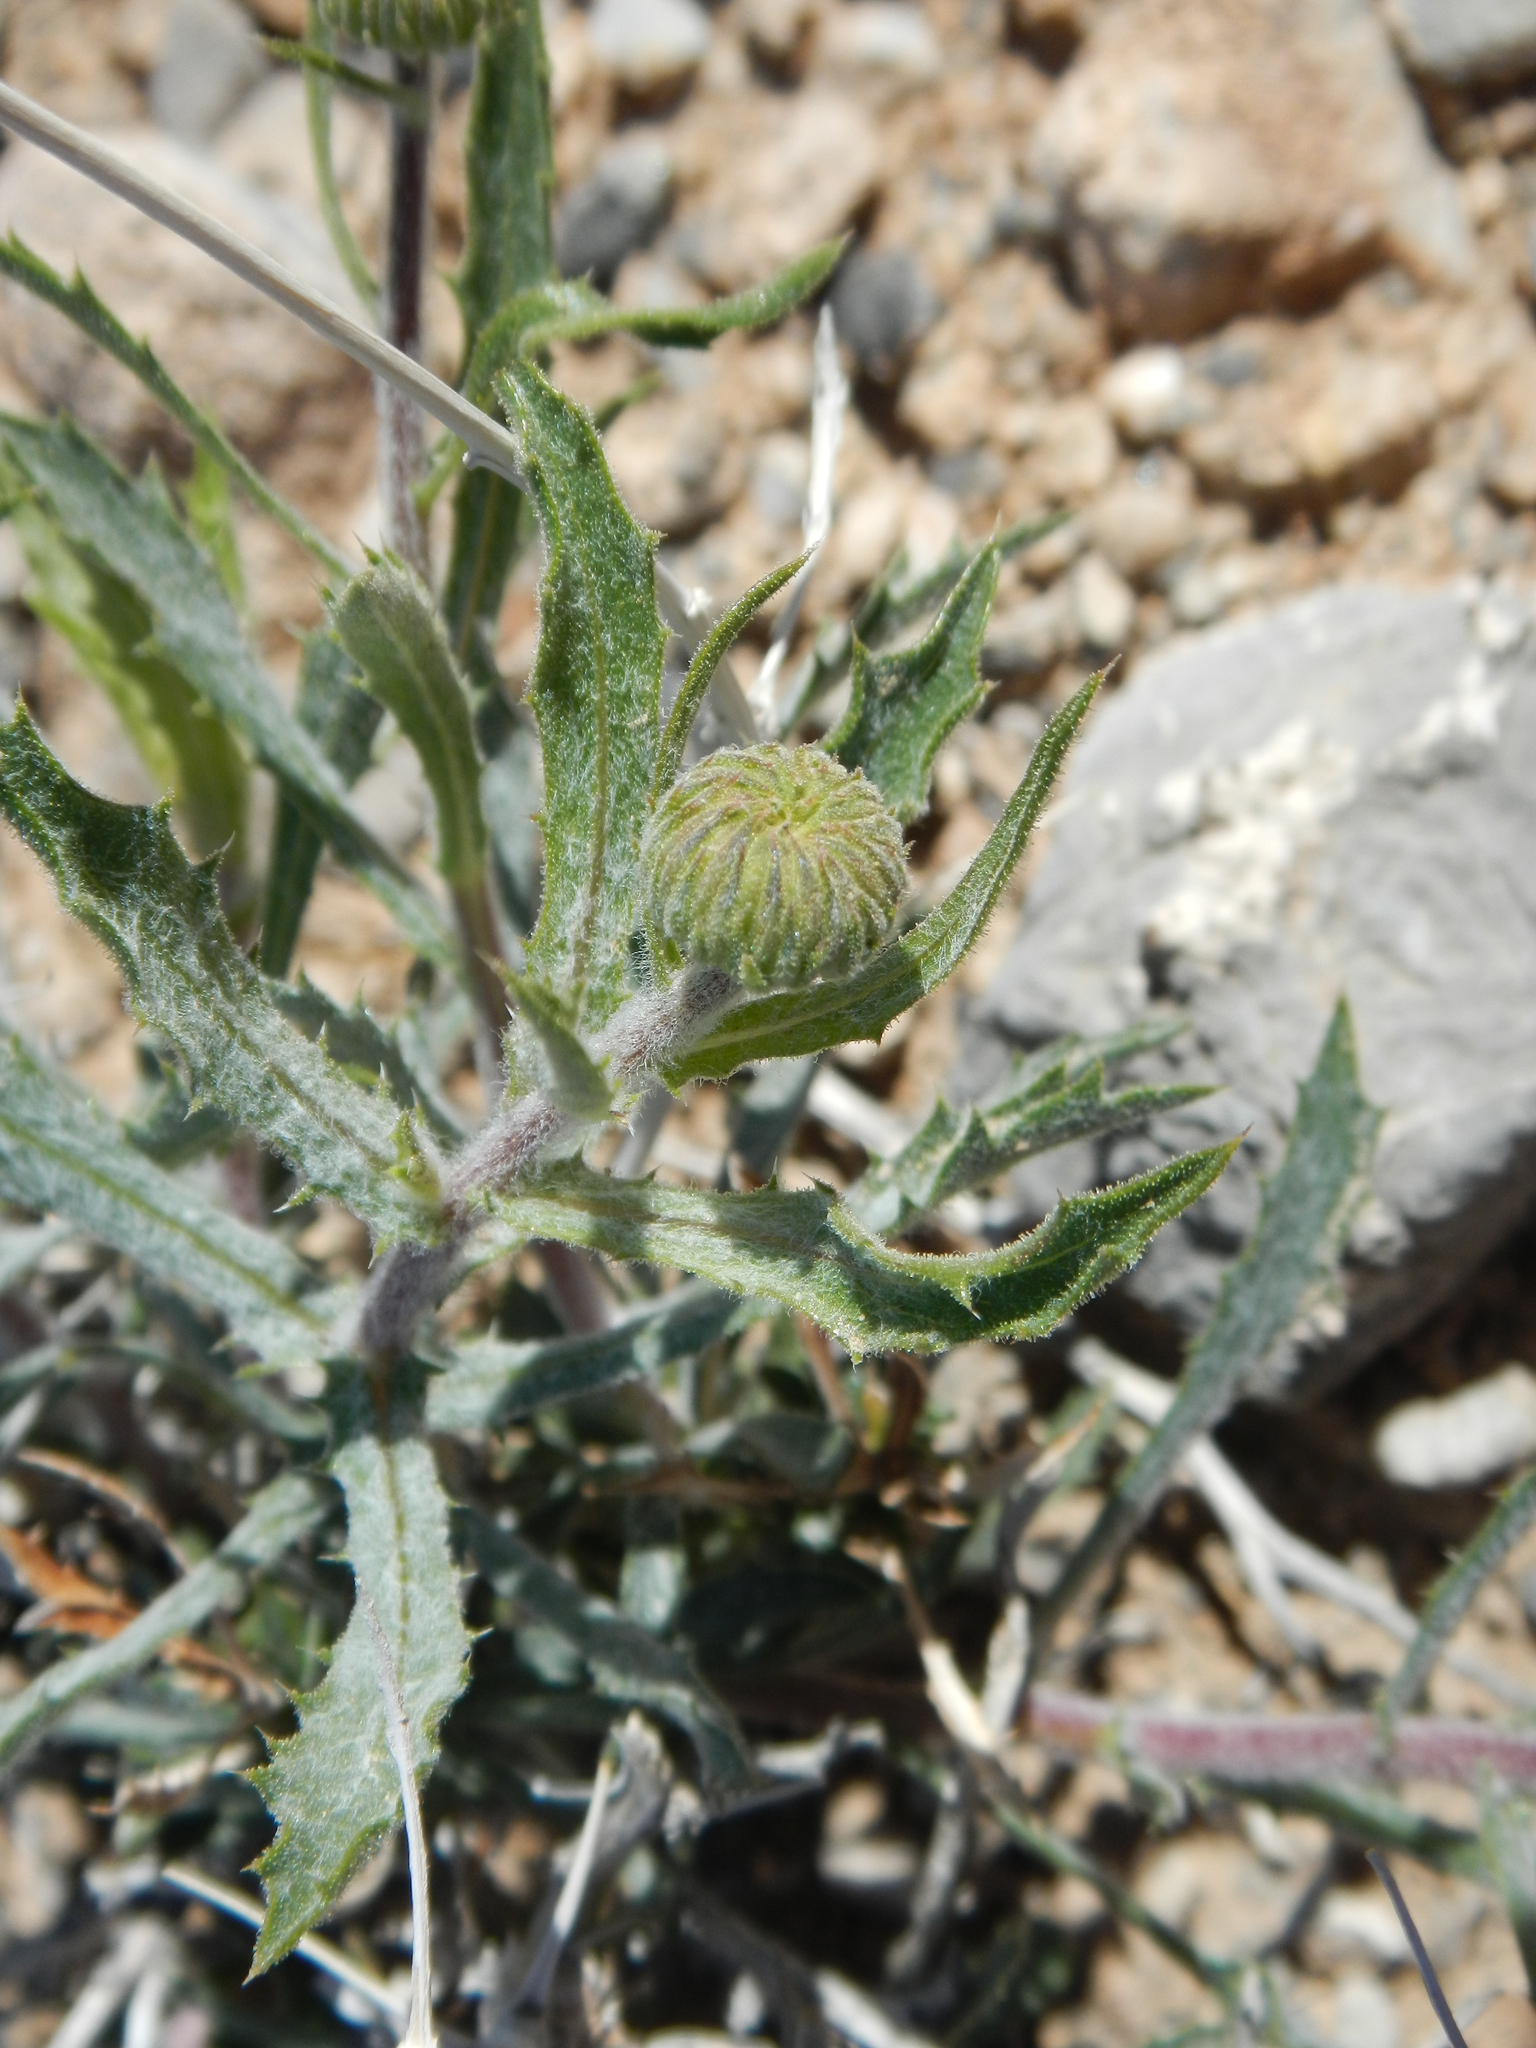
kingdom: Plantae
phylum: Tracheophyta
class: Magnoliopsida
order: Asterales
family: Asteraceae
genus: Xylorhiza
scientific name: Xylorhiza tortifolia
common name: Hurt-leaf woody-aster
